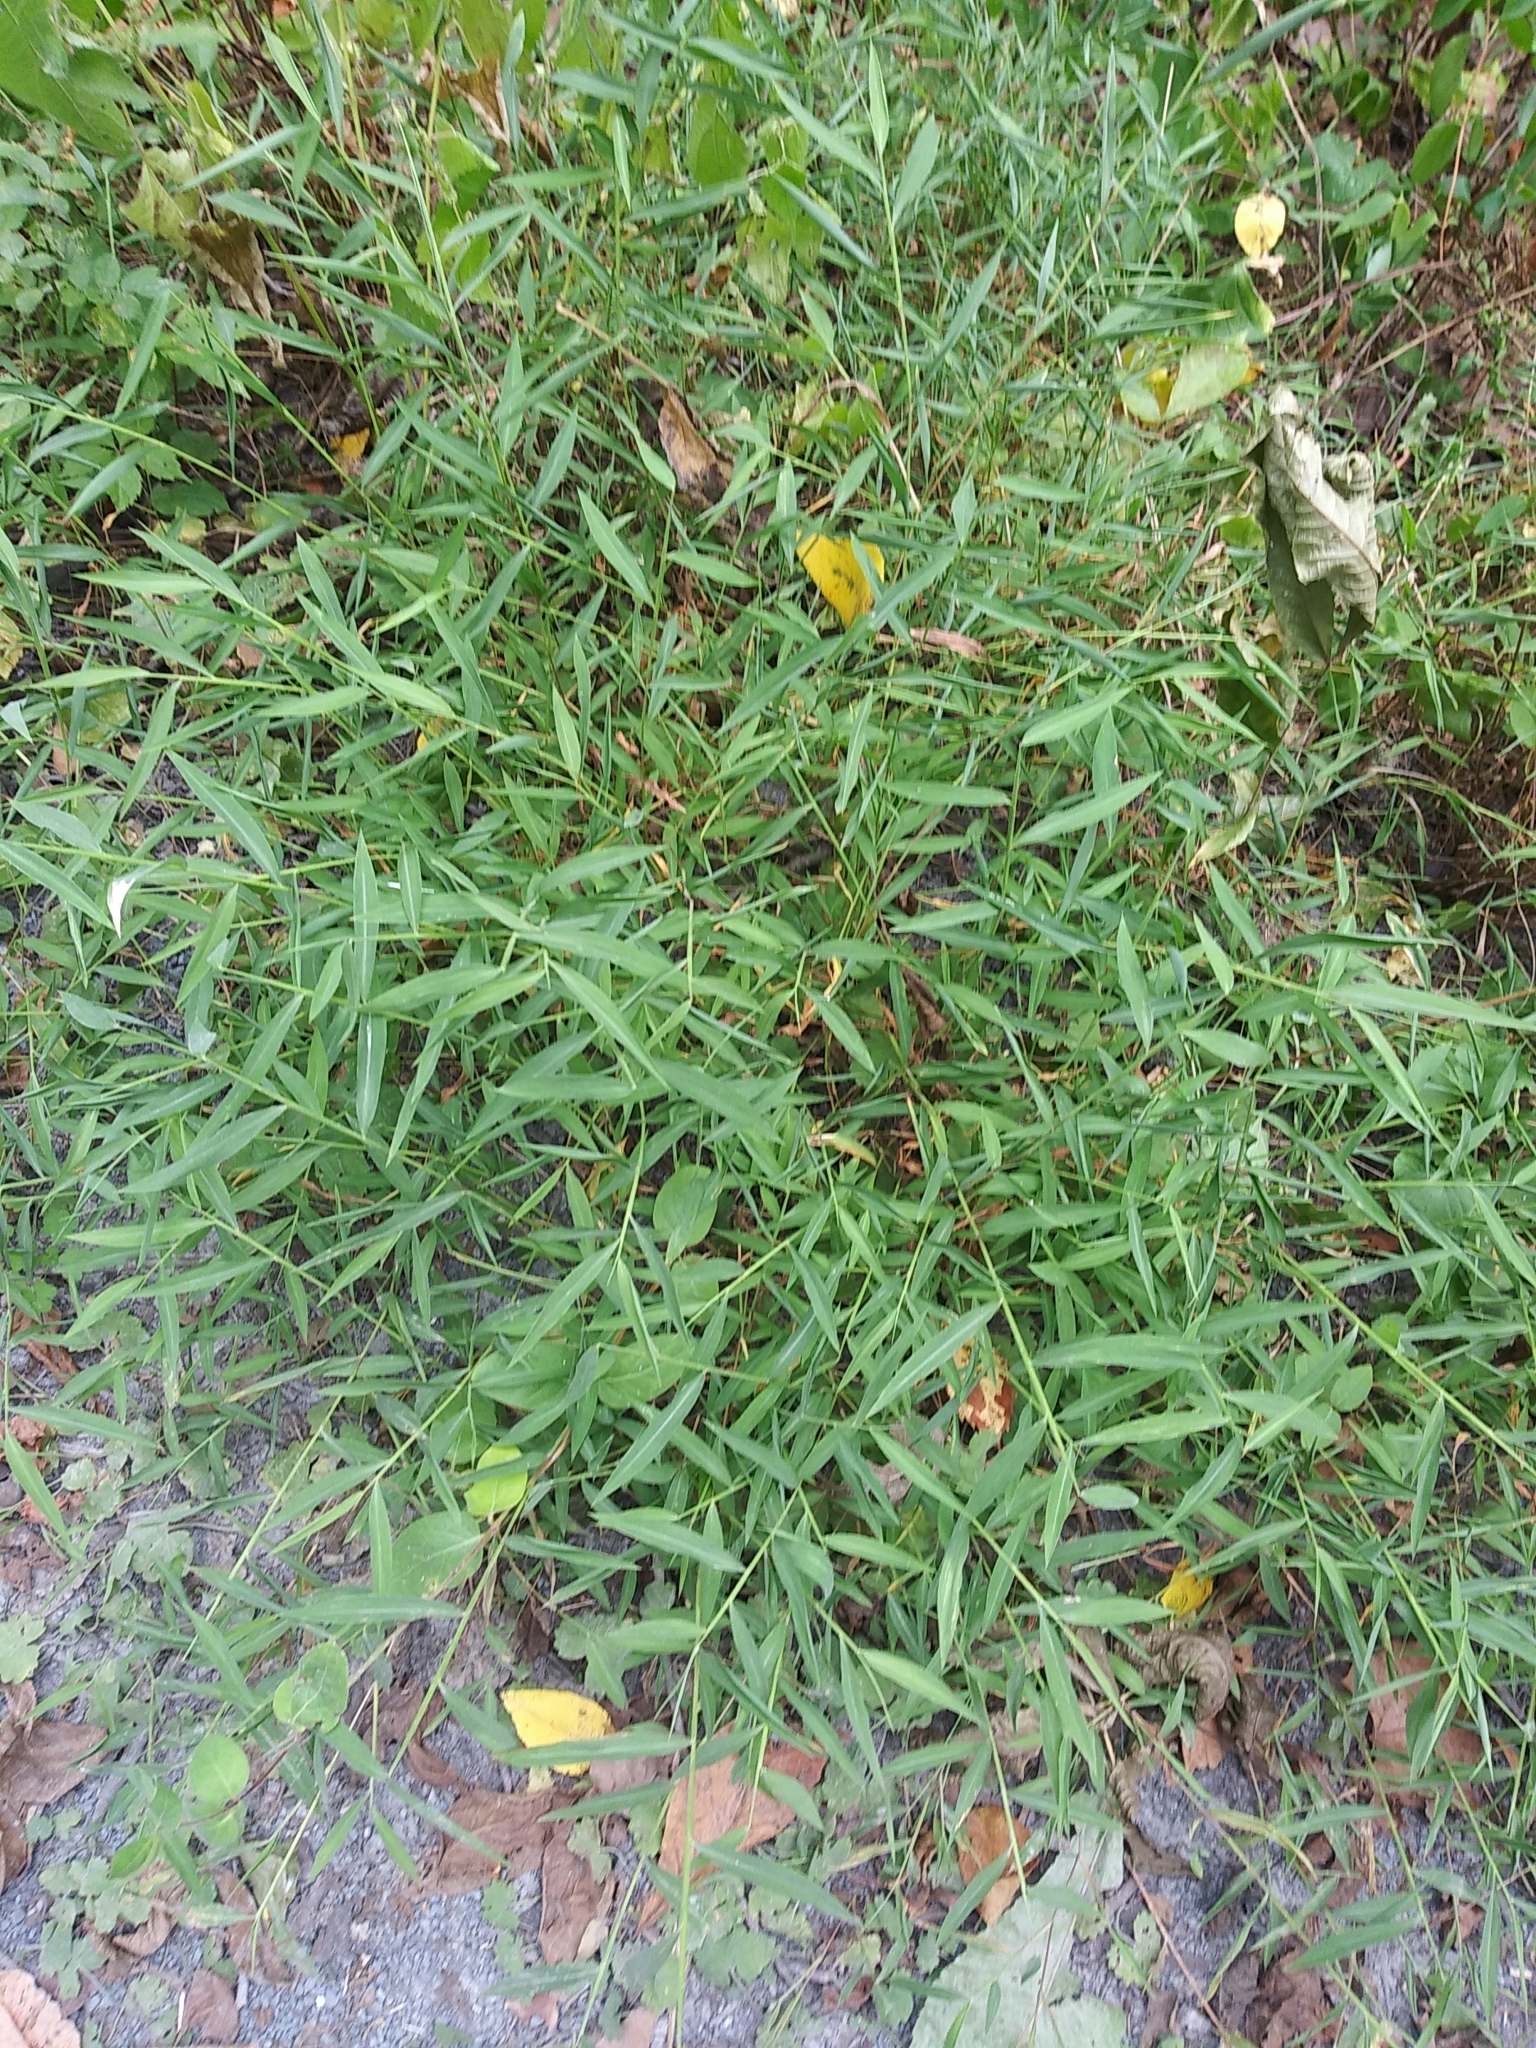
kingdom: Plantae
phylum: Tracheophyta
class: Liliopsida
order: Poales
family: Poaceae
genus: Microstegium
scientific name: Microstegium vimineum
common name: Japanese stiltgrass
